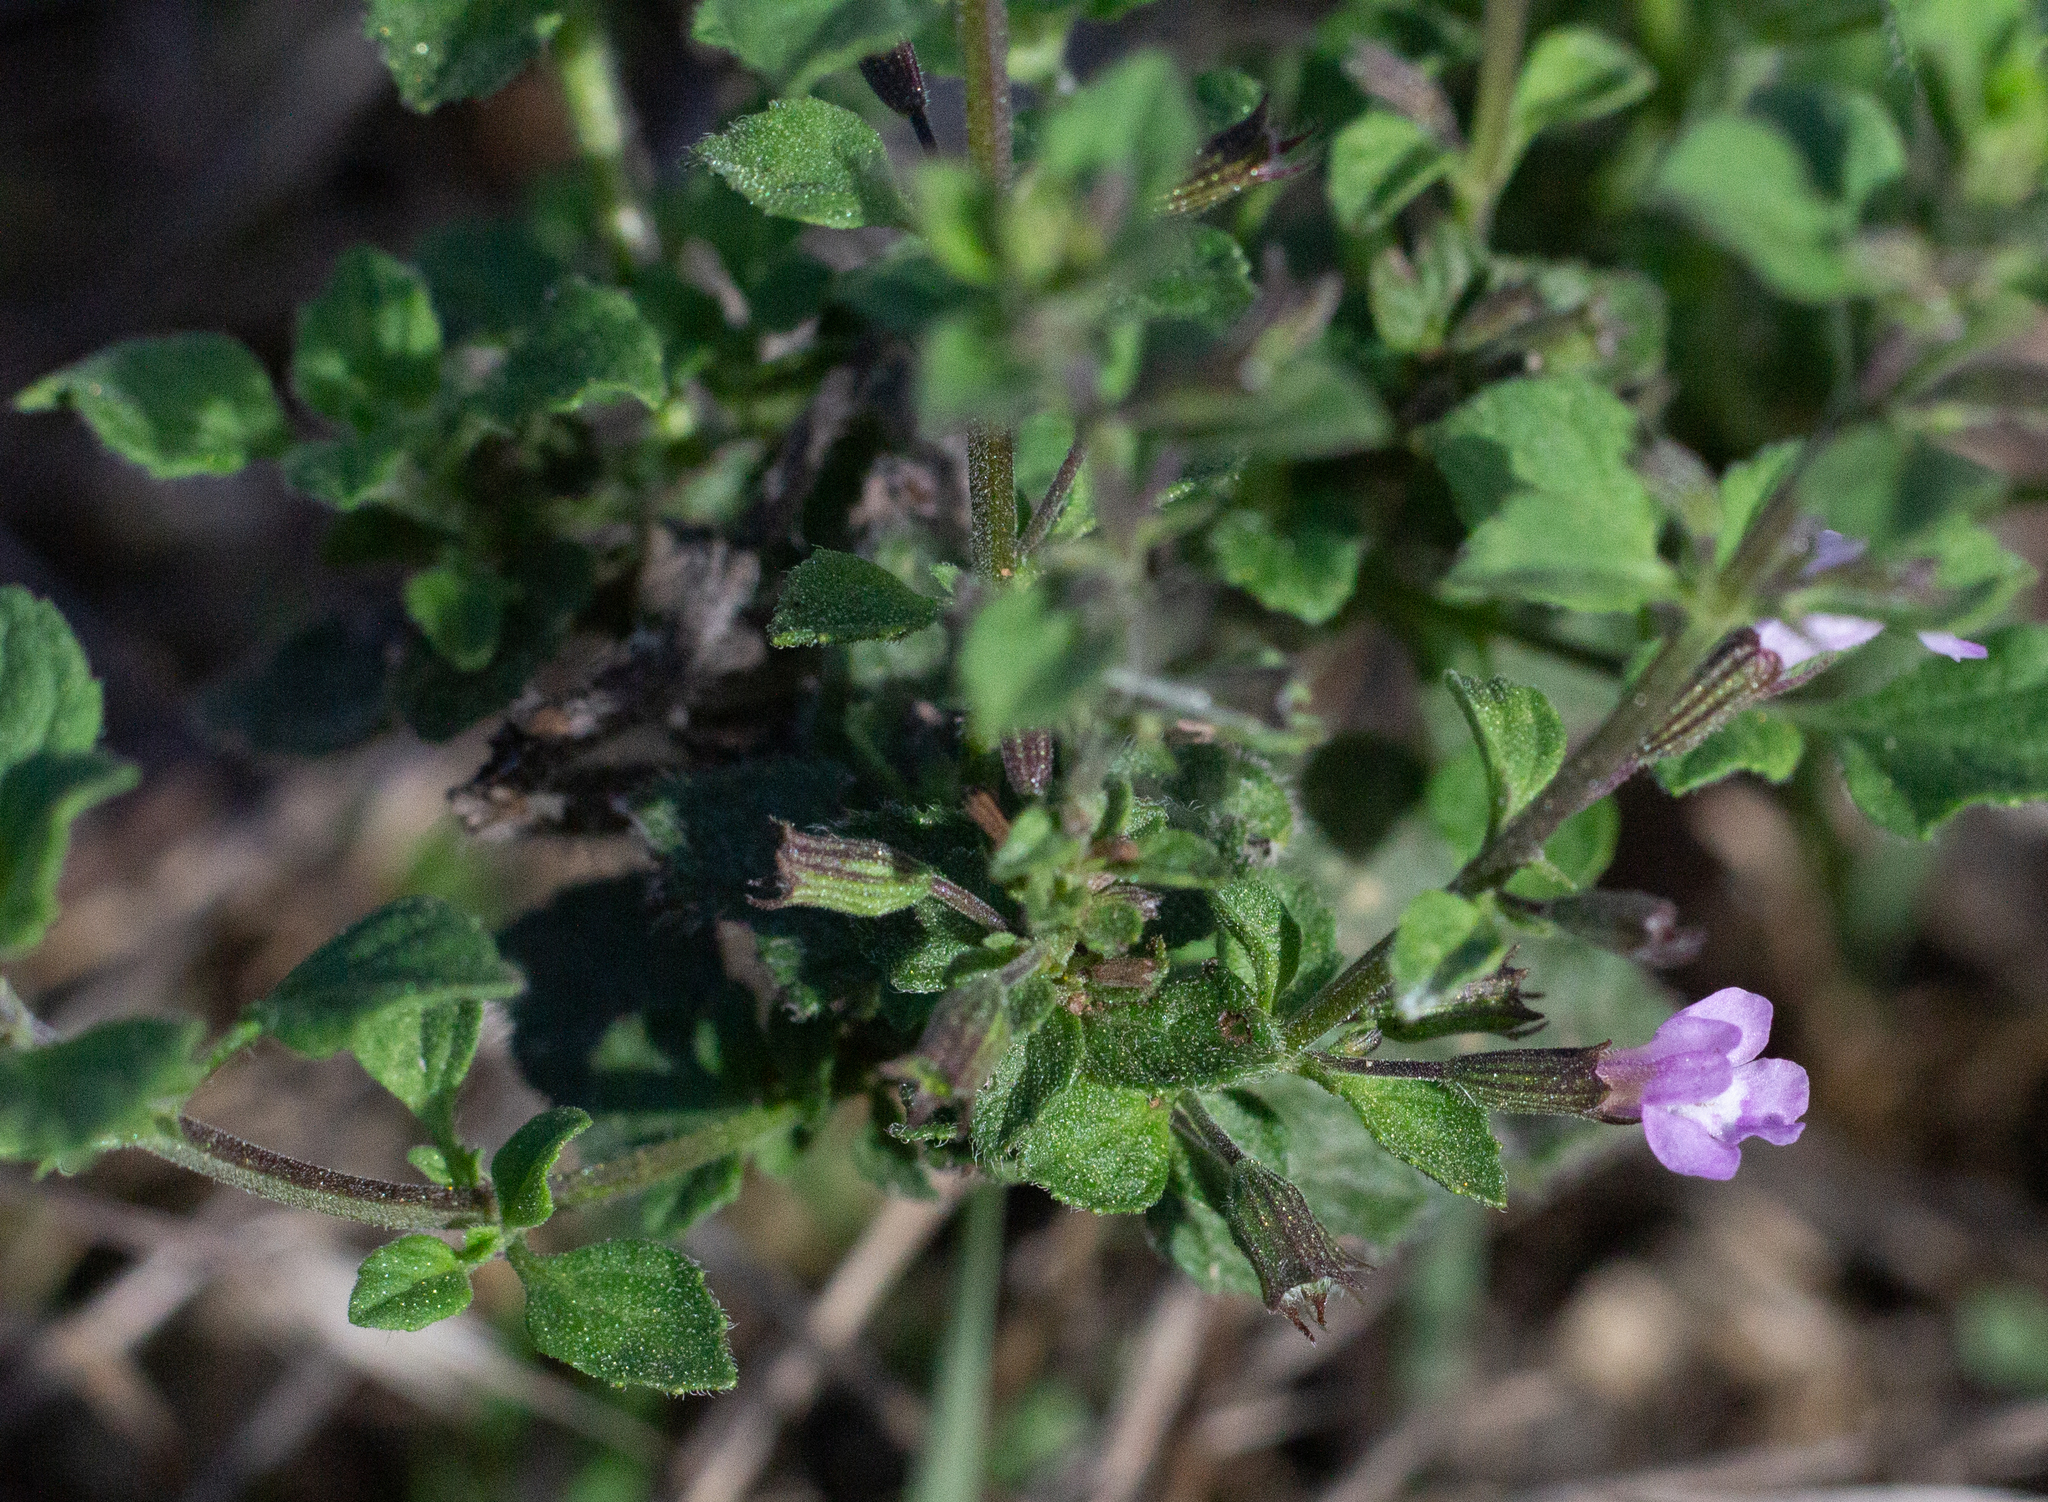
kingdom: Plantae
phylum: Tracheophyta
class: Magnoliopsida
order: Lamiales
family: Lamiaceae
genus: Clinopodium
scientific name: Clinopodium nepeta
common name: Lesser calamint
